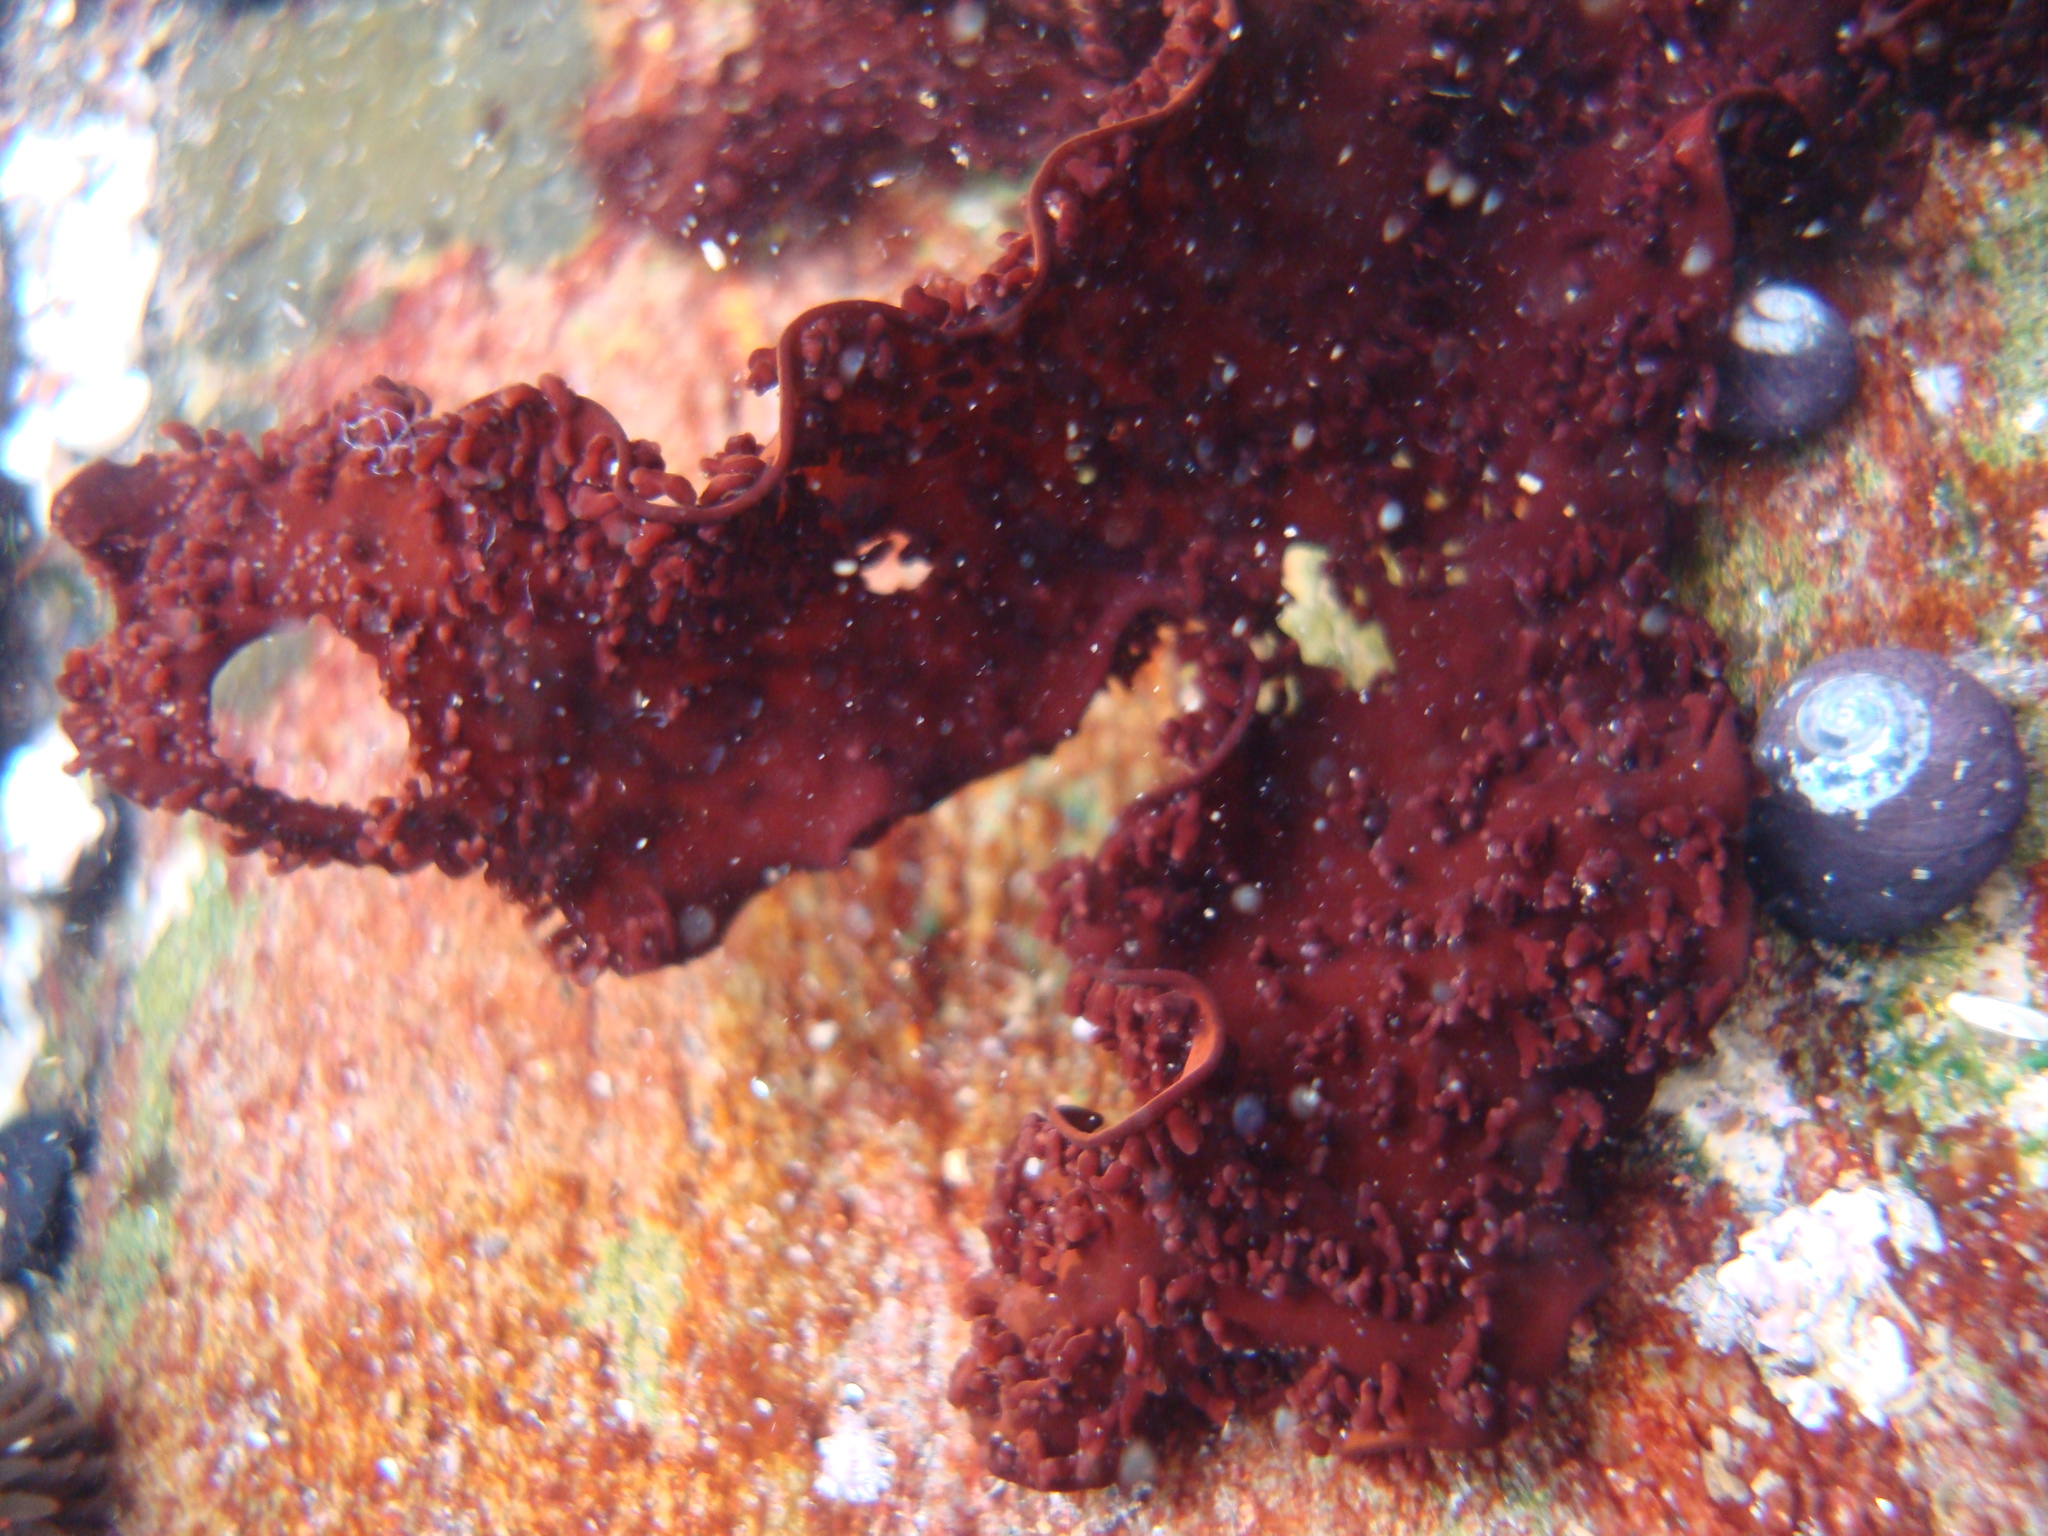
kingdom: Plantae
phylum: Rhodophyta
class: Florideophyceae
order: Gigartinales
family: Phyllophoraceae
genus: Mastocarpus
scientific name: Mastocarpus
